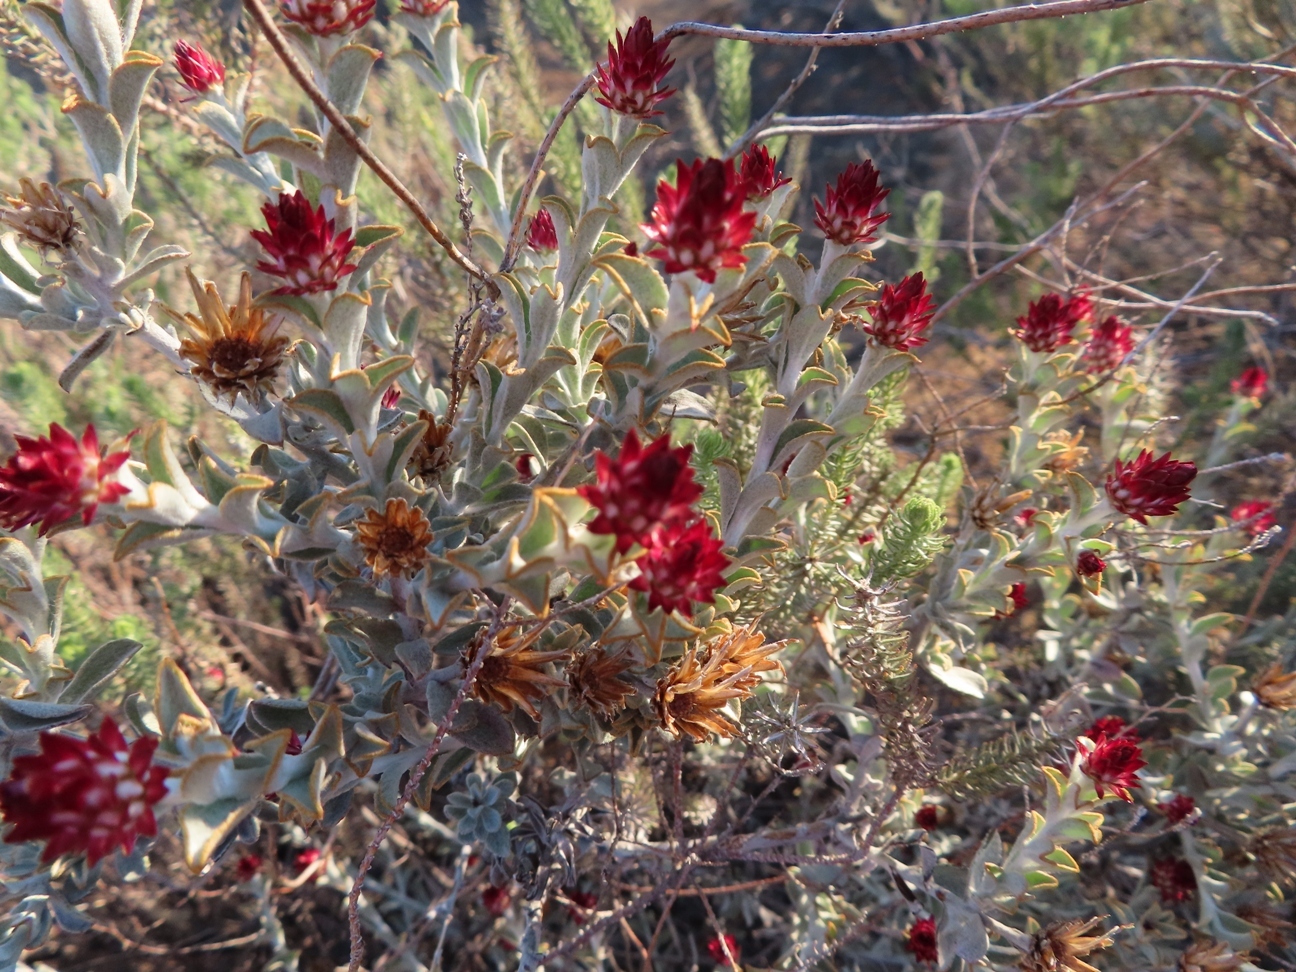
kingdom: Plantae
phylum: Tracheophyta
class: Magnoliopsida
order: Asterales
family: Asteraceae
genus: Syncarpha
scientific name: Syncarpha dregeana
